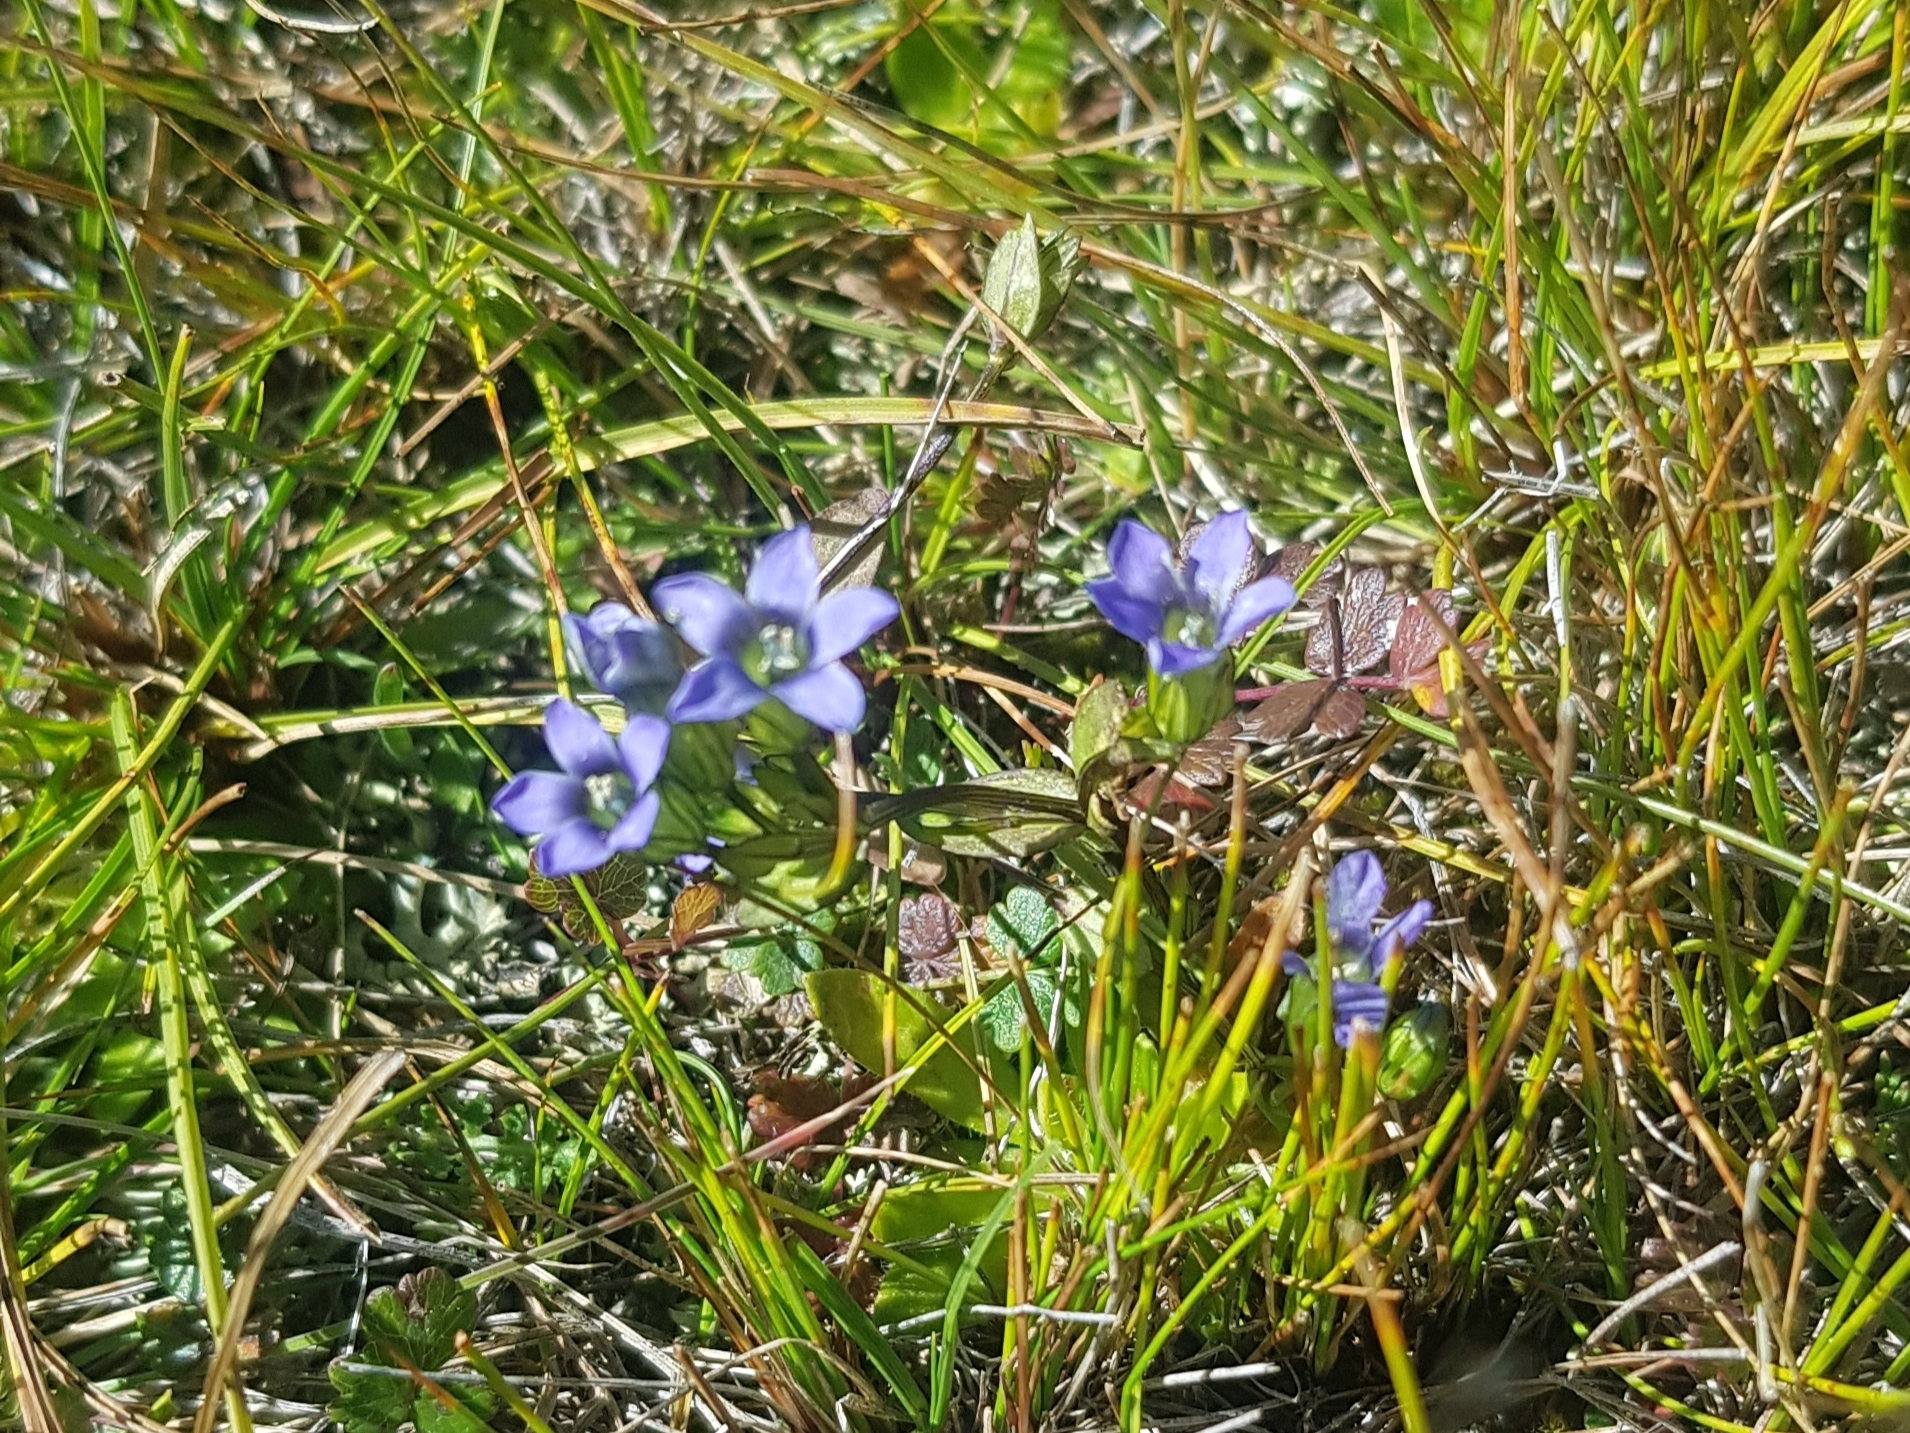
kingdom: Plantae
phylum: Tracheophyta
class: Magnoliopsida
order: Gentianales
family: Gentianaceae
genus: Comastoma
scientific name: Comastoma tenellum
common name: Dane's dwarf gentian
